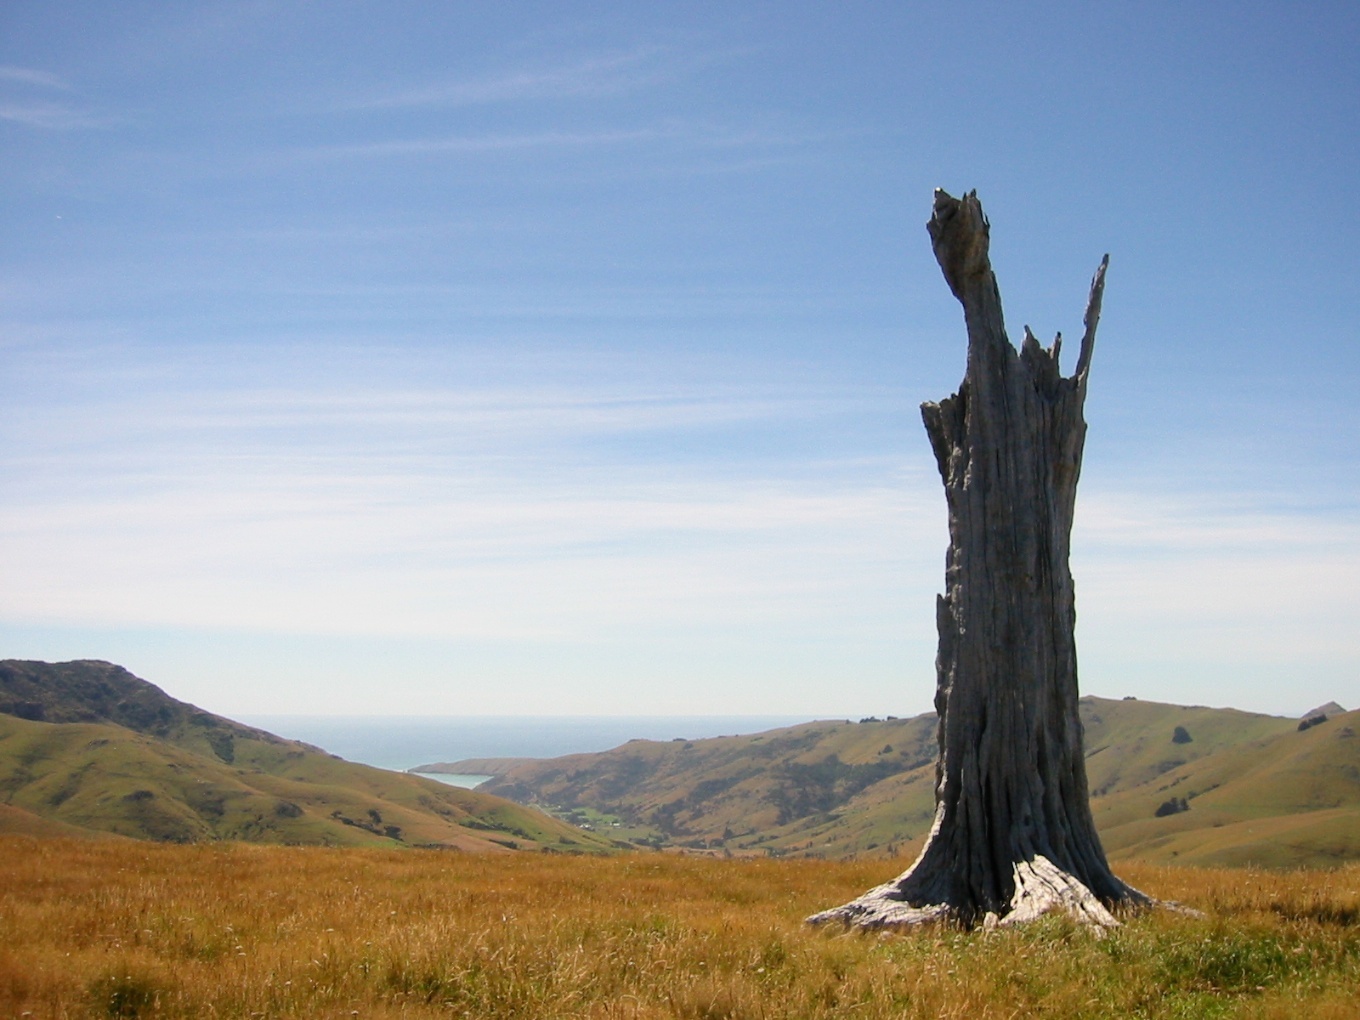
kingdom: Plantae
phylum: Tracheophyta
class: Pinopsida
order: Pinales
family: Podocarpaceae
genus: Podocarpus
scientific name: Podocarpus laetus
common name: Hall's totara
